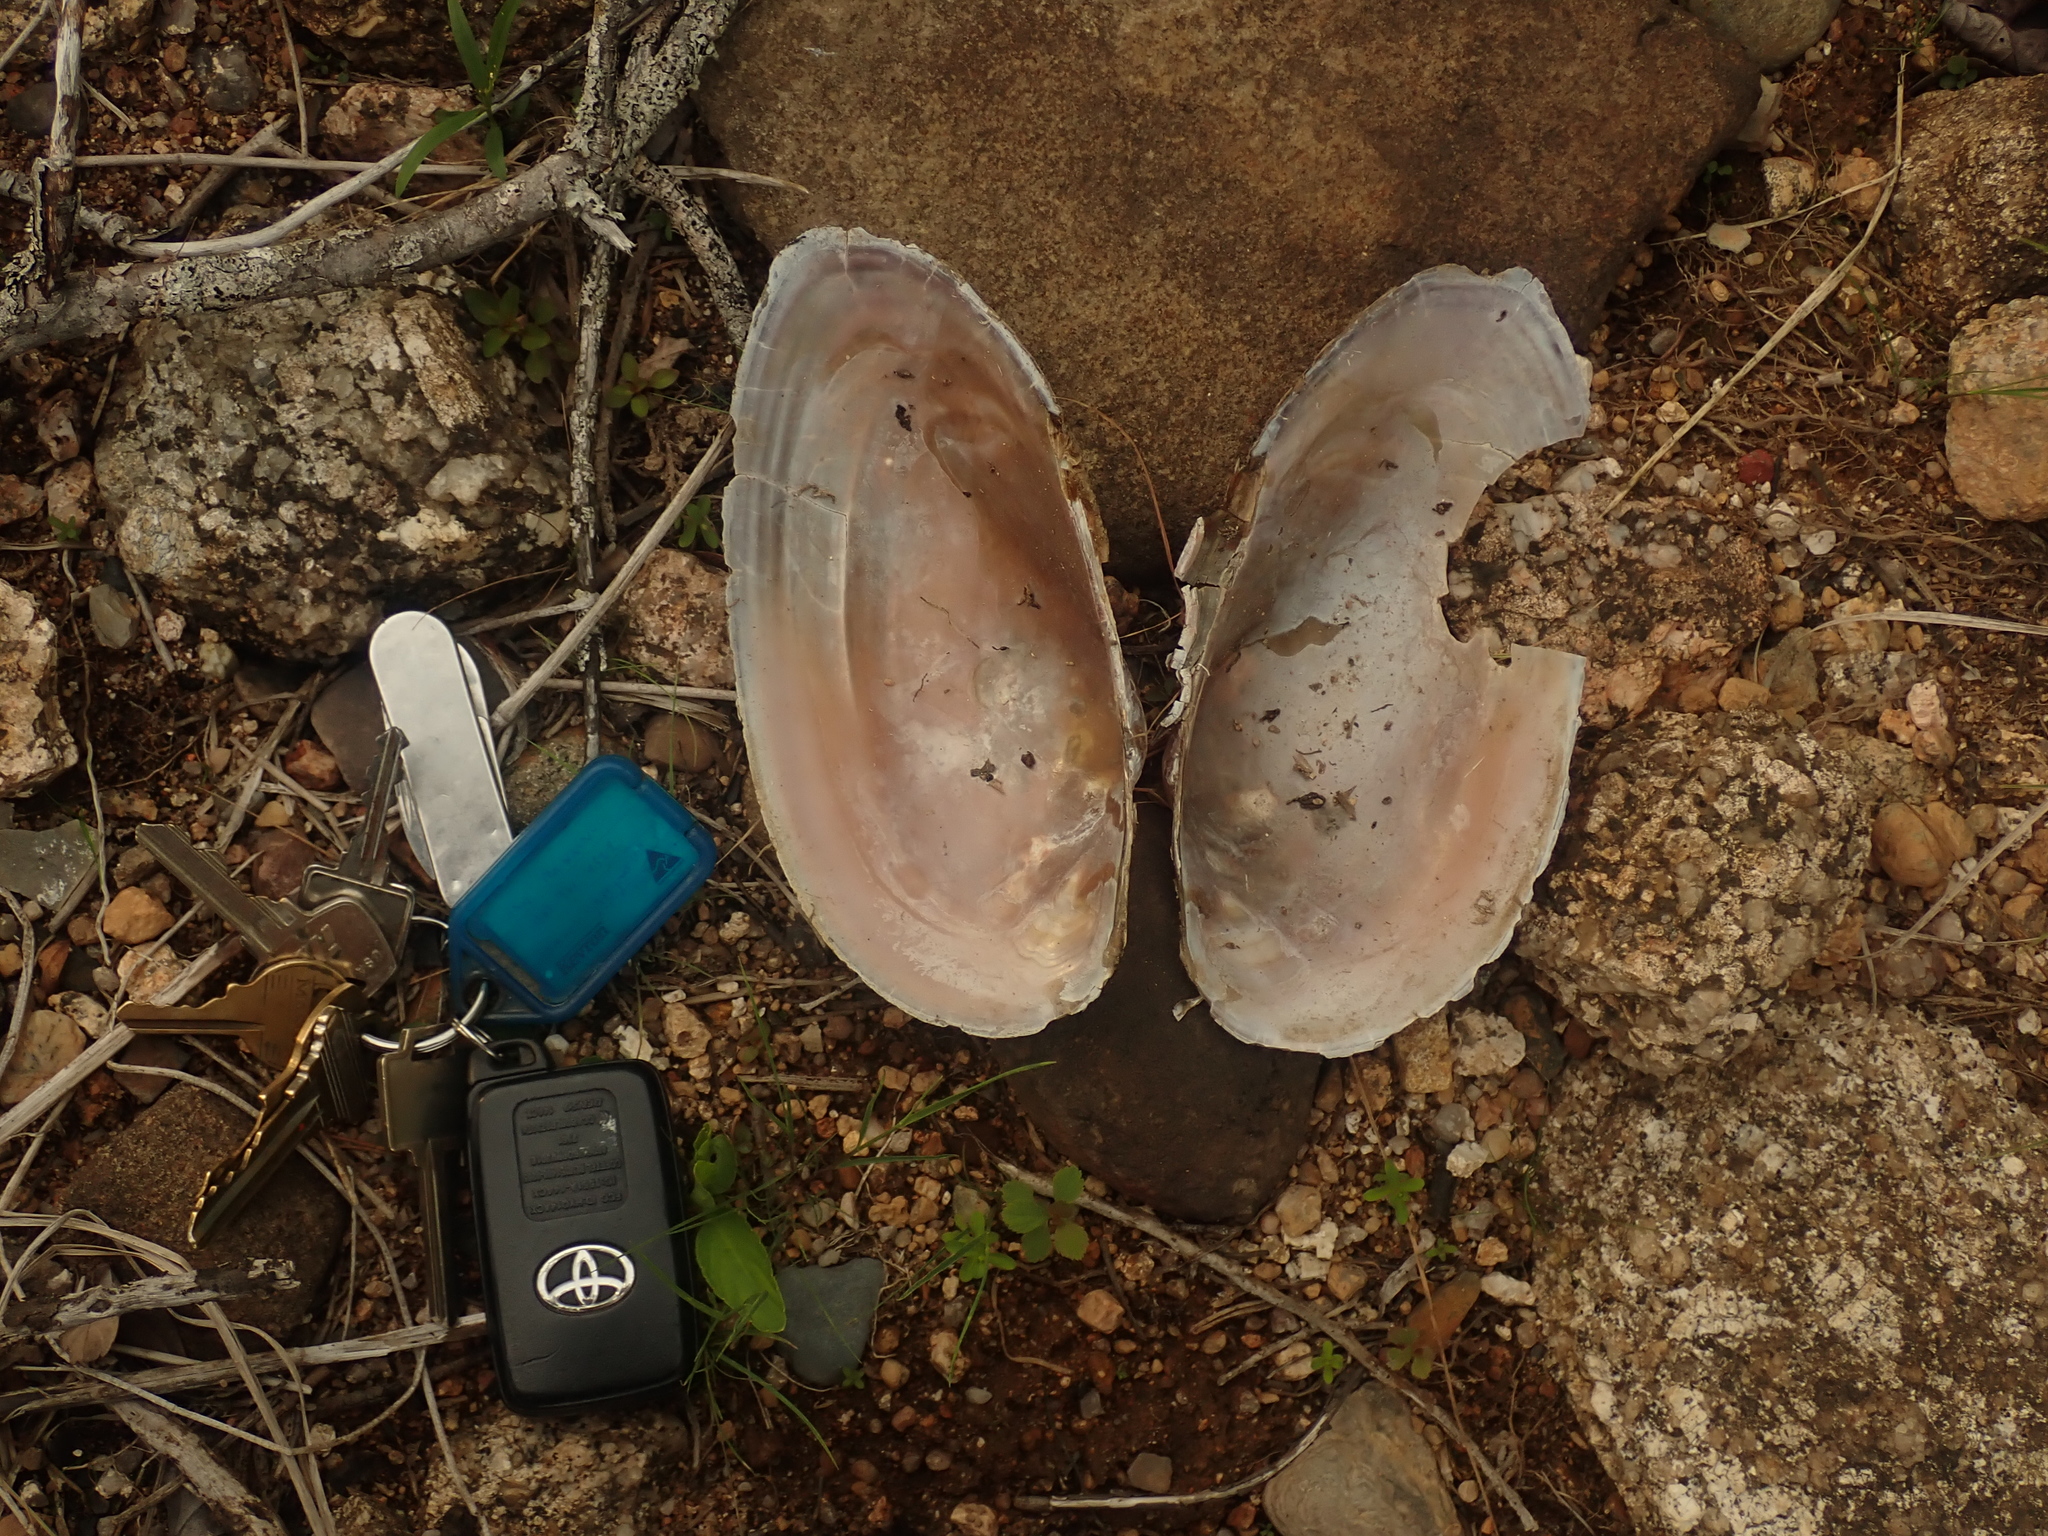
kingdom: Animalia
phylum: Mollusca
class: Bivalvia
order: Unionida
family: Unionidae
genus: Utterbackiana
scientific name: Utterbackiana implicata
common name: Alewife floater
